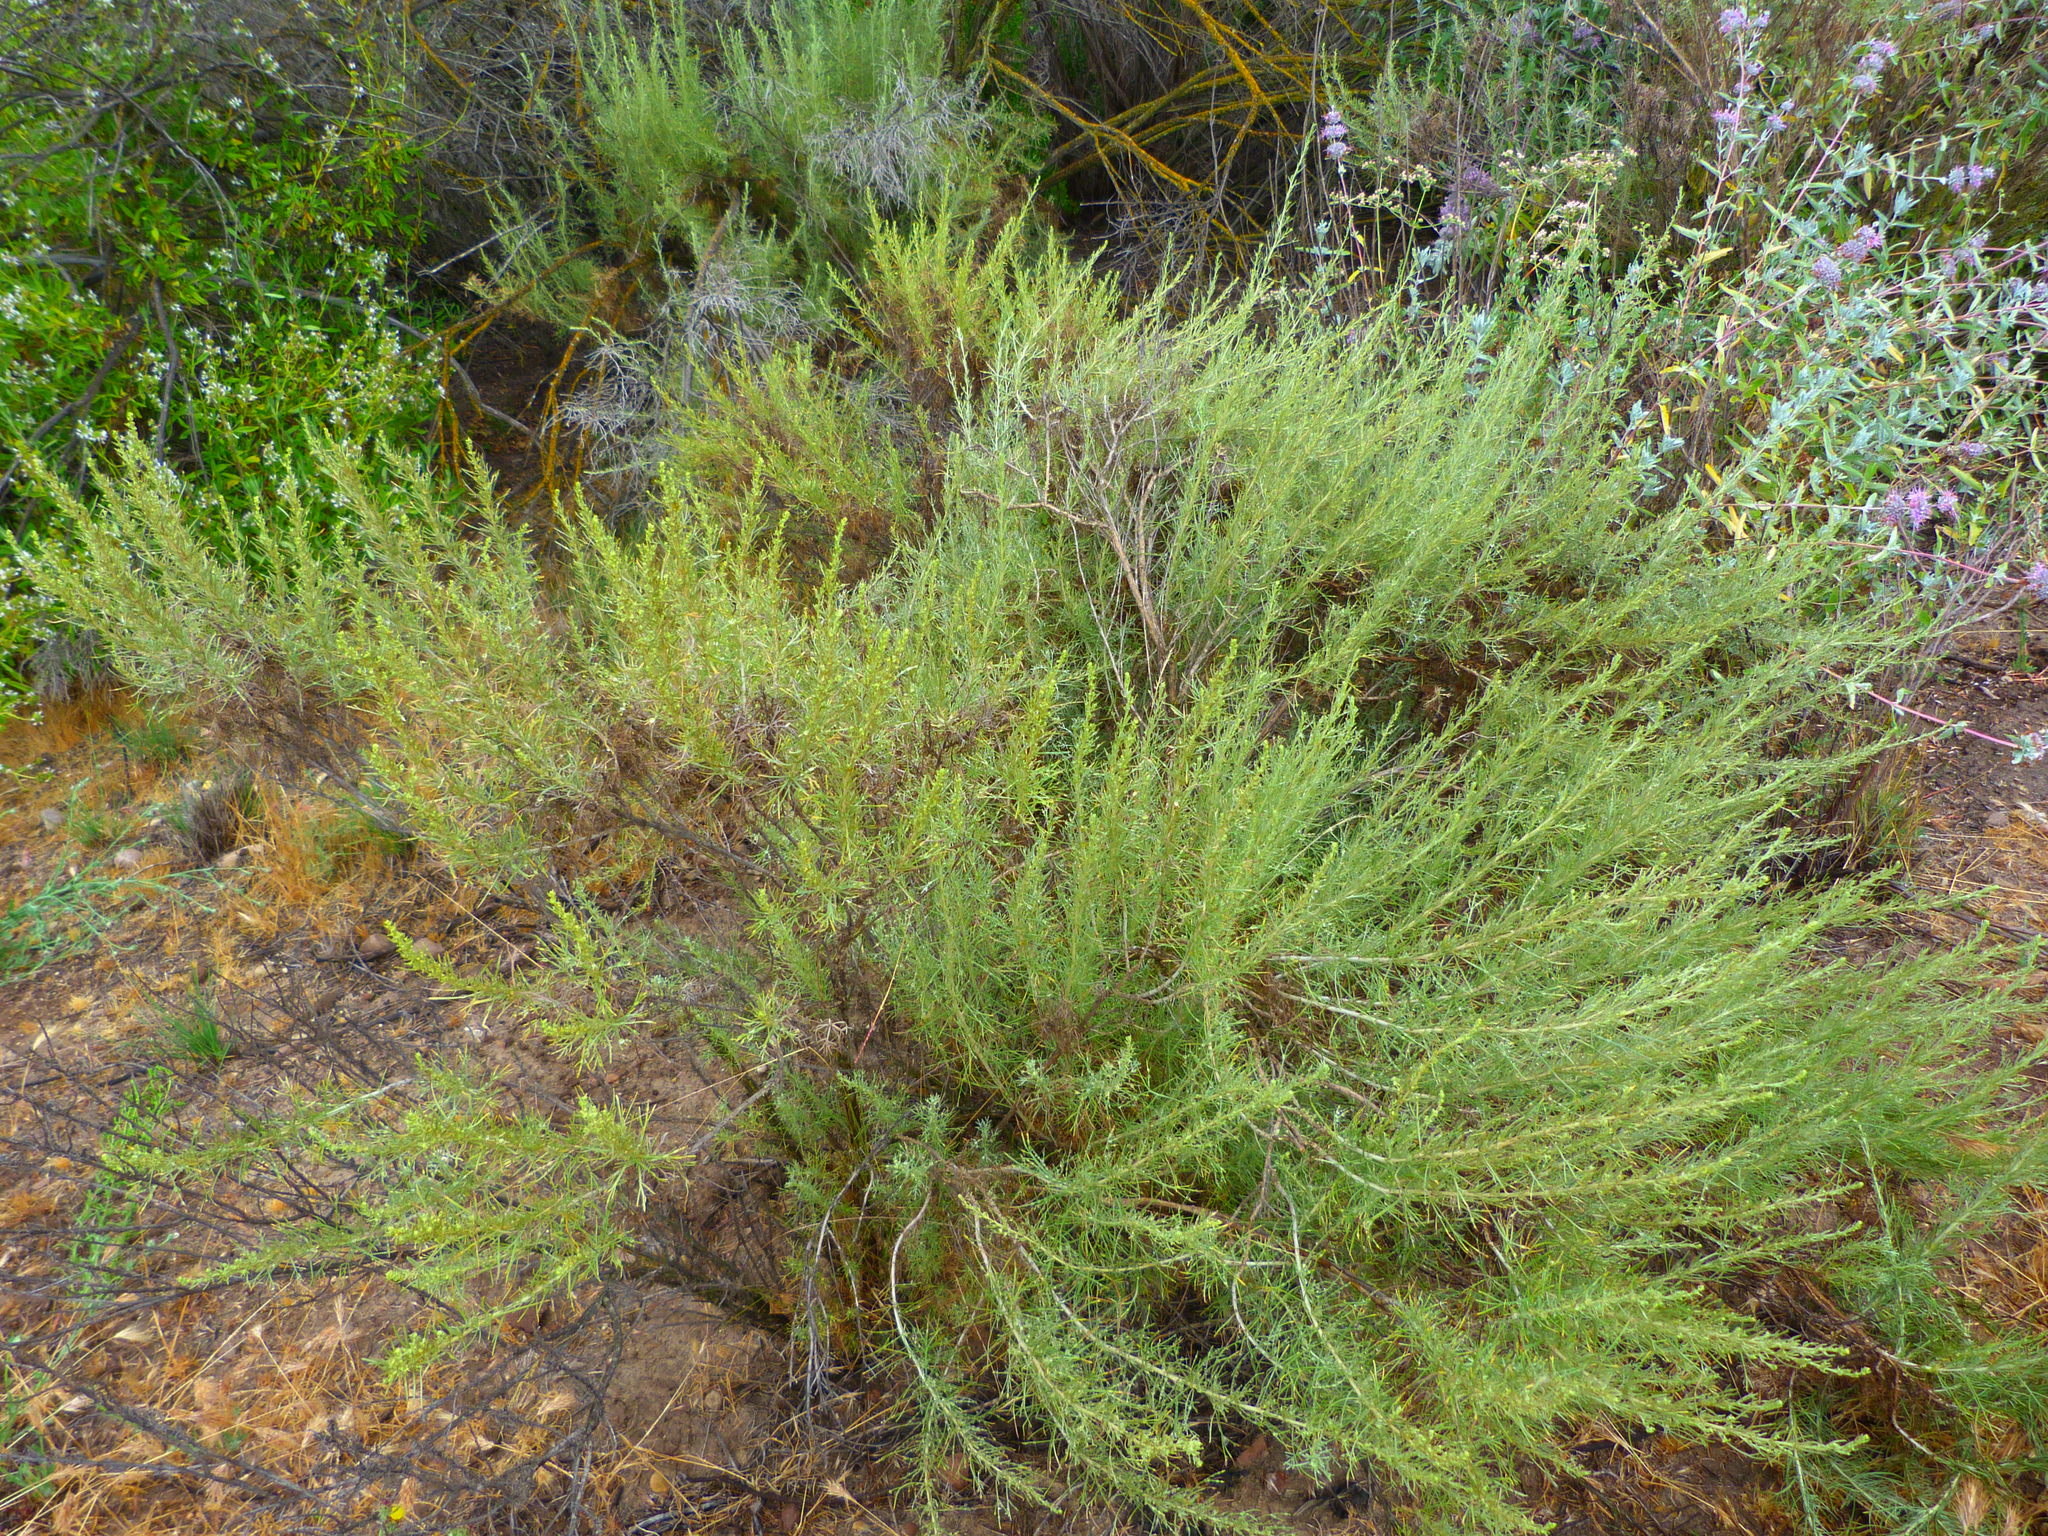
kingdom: Plantae
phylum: Tracheophyta
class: Magnoliopsida
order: Asterales
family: Asteraceae
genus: Artemisia
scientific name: Artemisia californica
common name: California sagebrush
